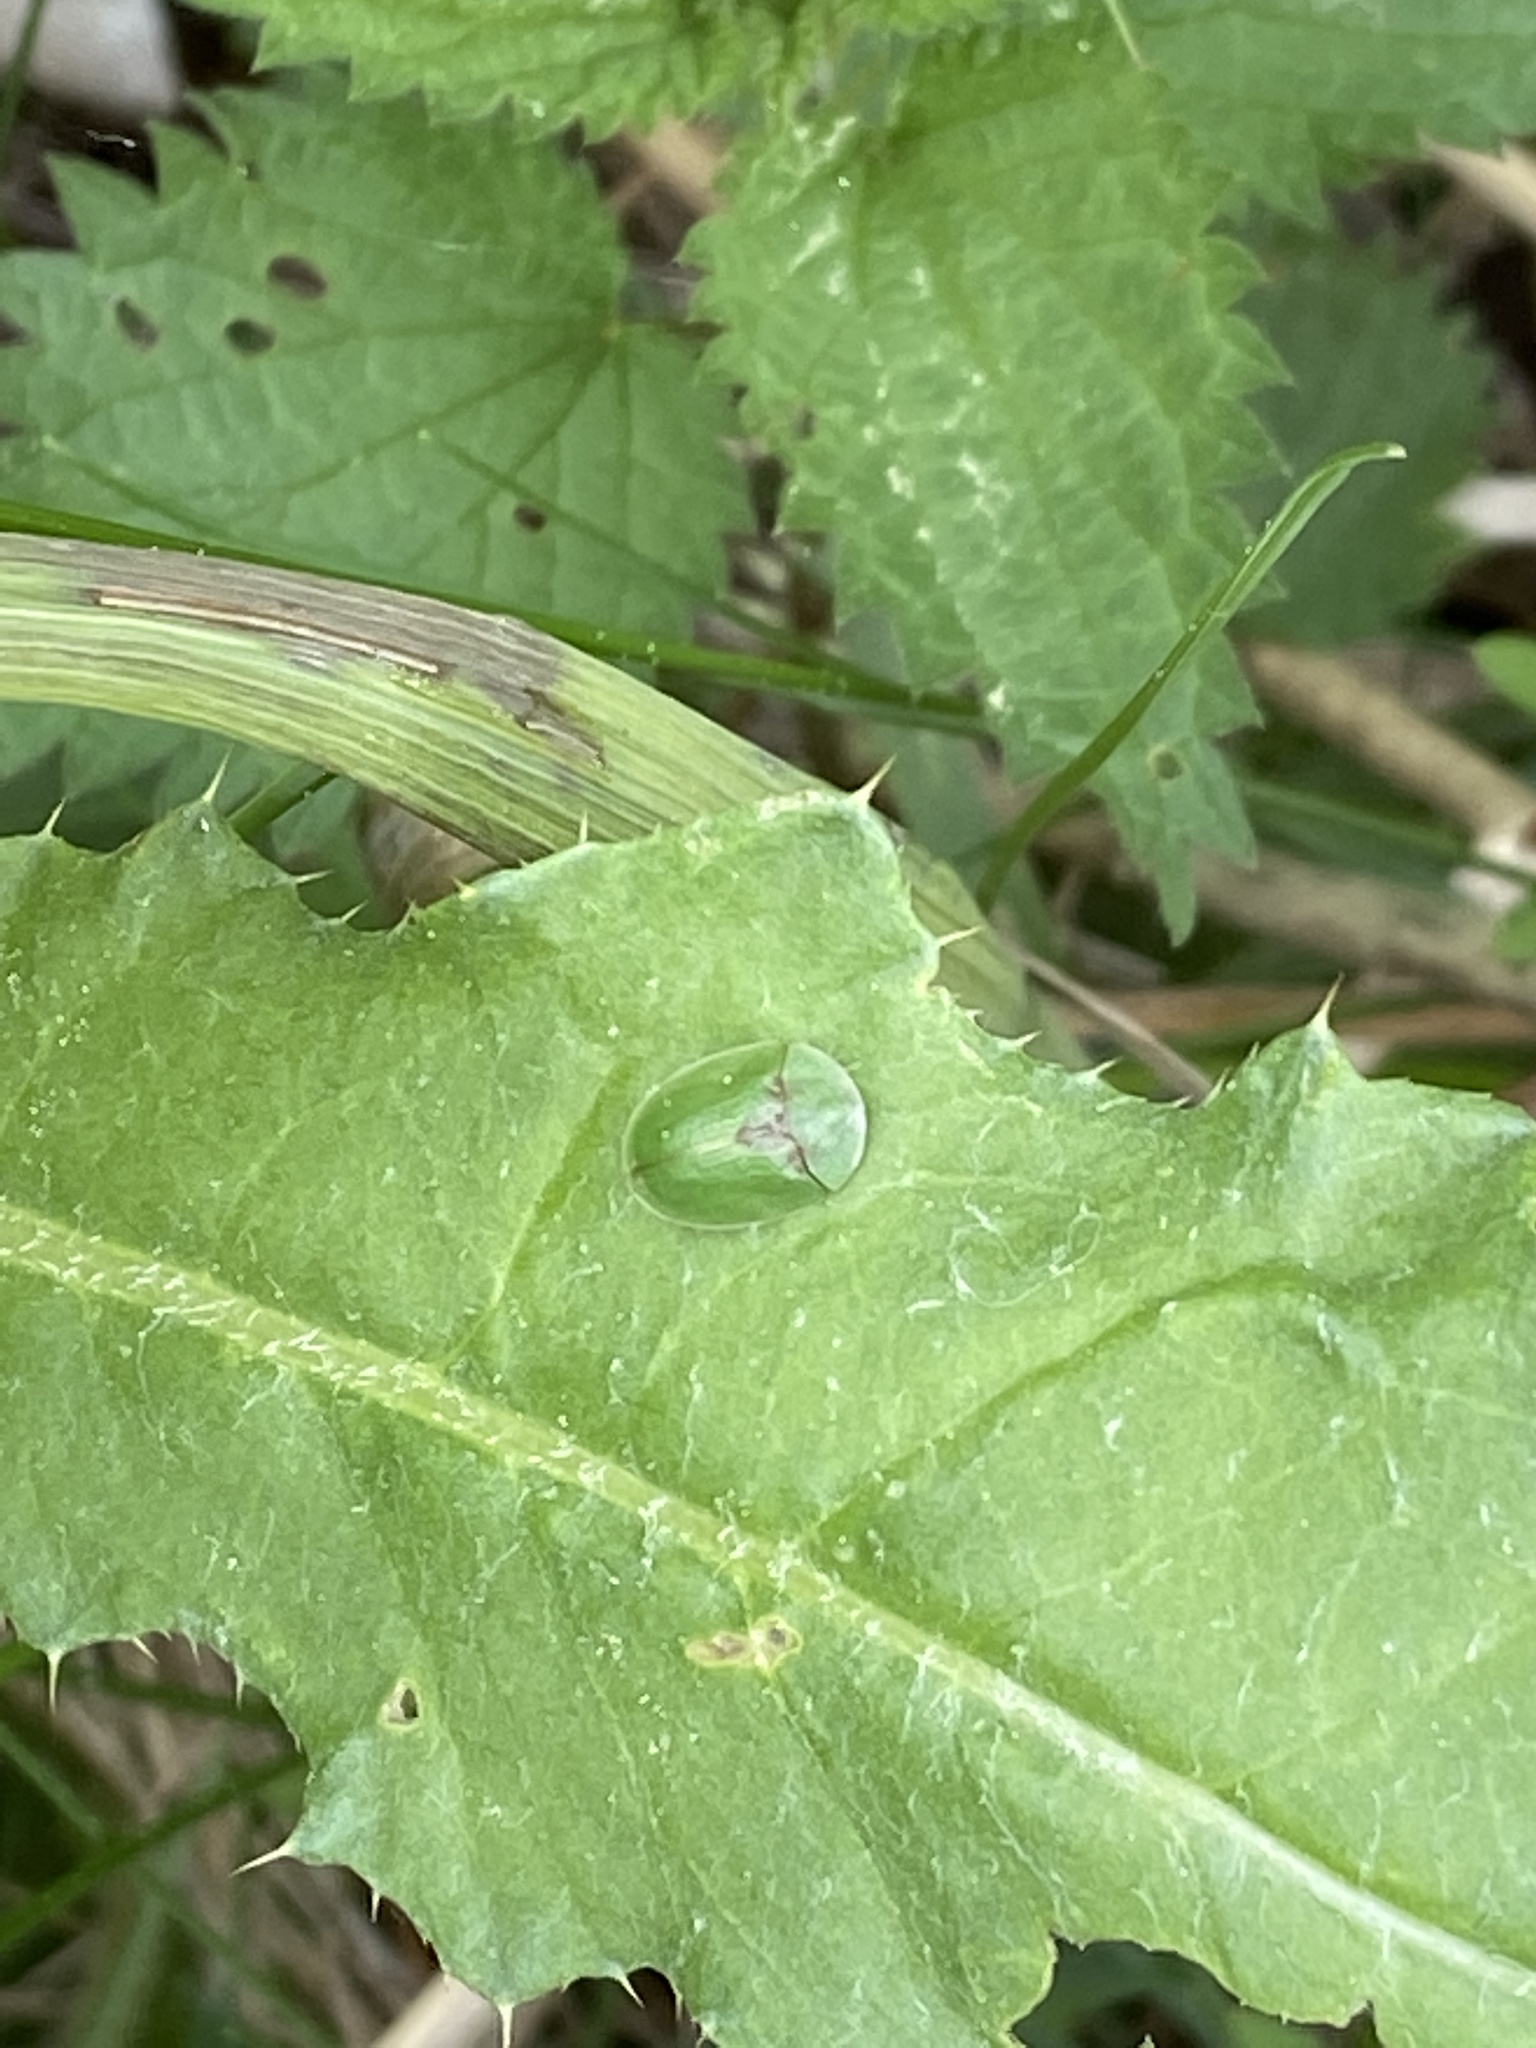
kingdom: Animalia
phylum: Arthropoda
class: Insecta
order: Coleoptera
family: Chrysomelidae
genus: Cassida
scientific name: Cassida rubiginosa
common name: Thistle tortoise beetle
